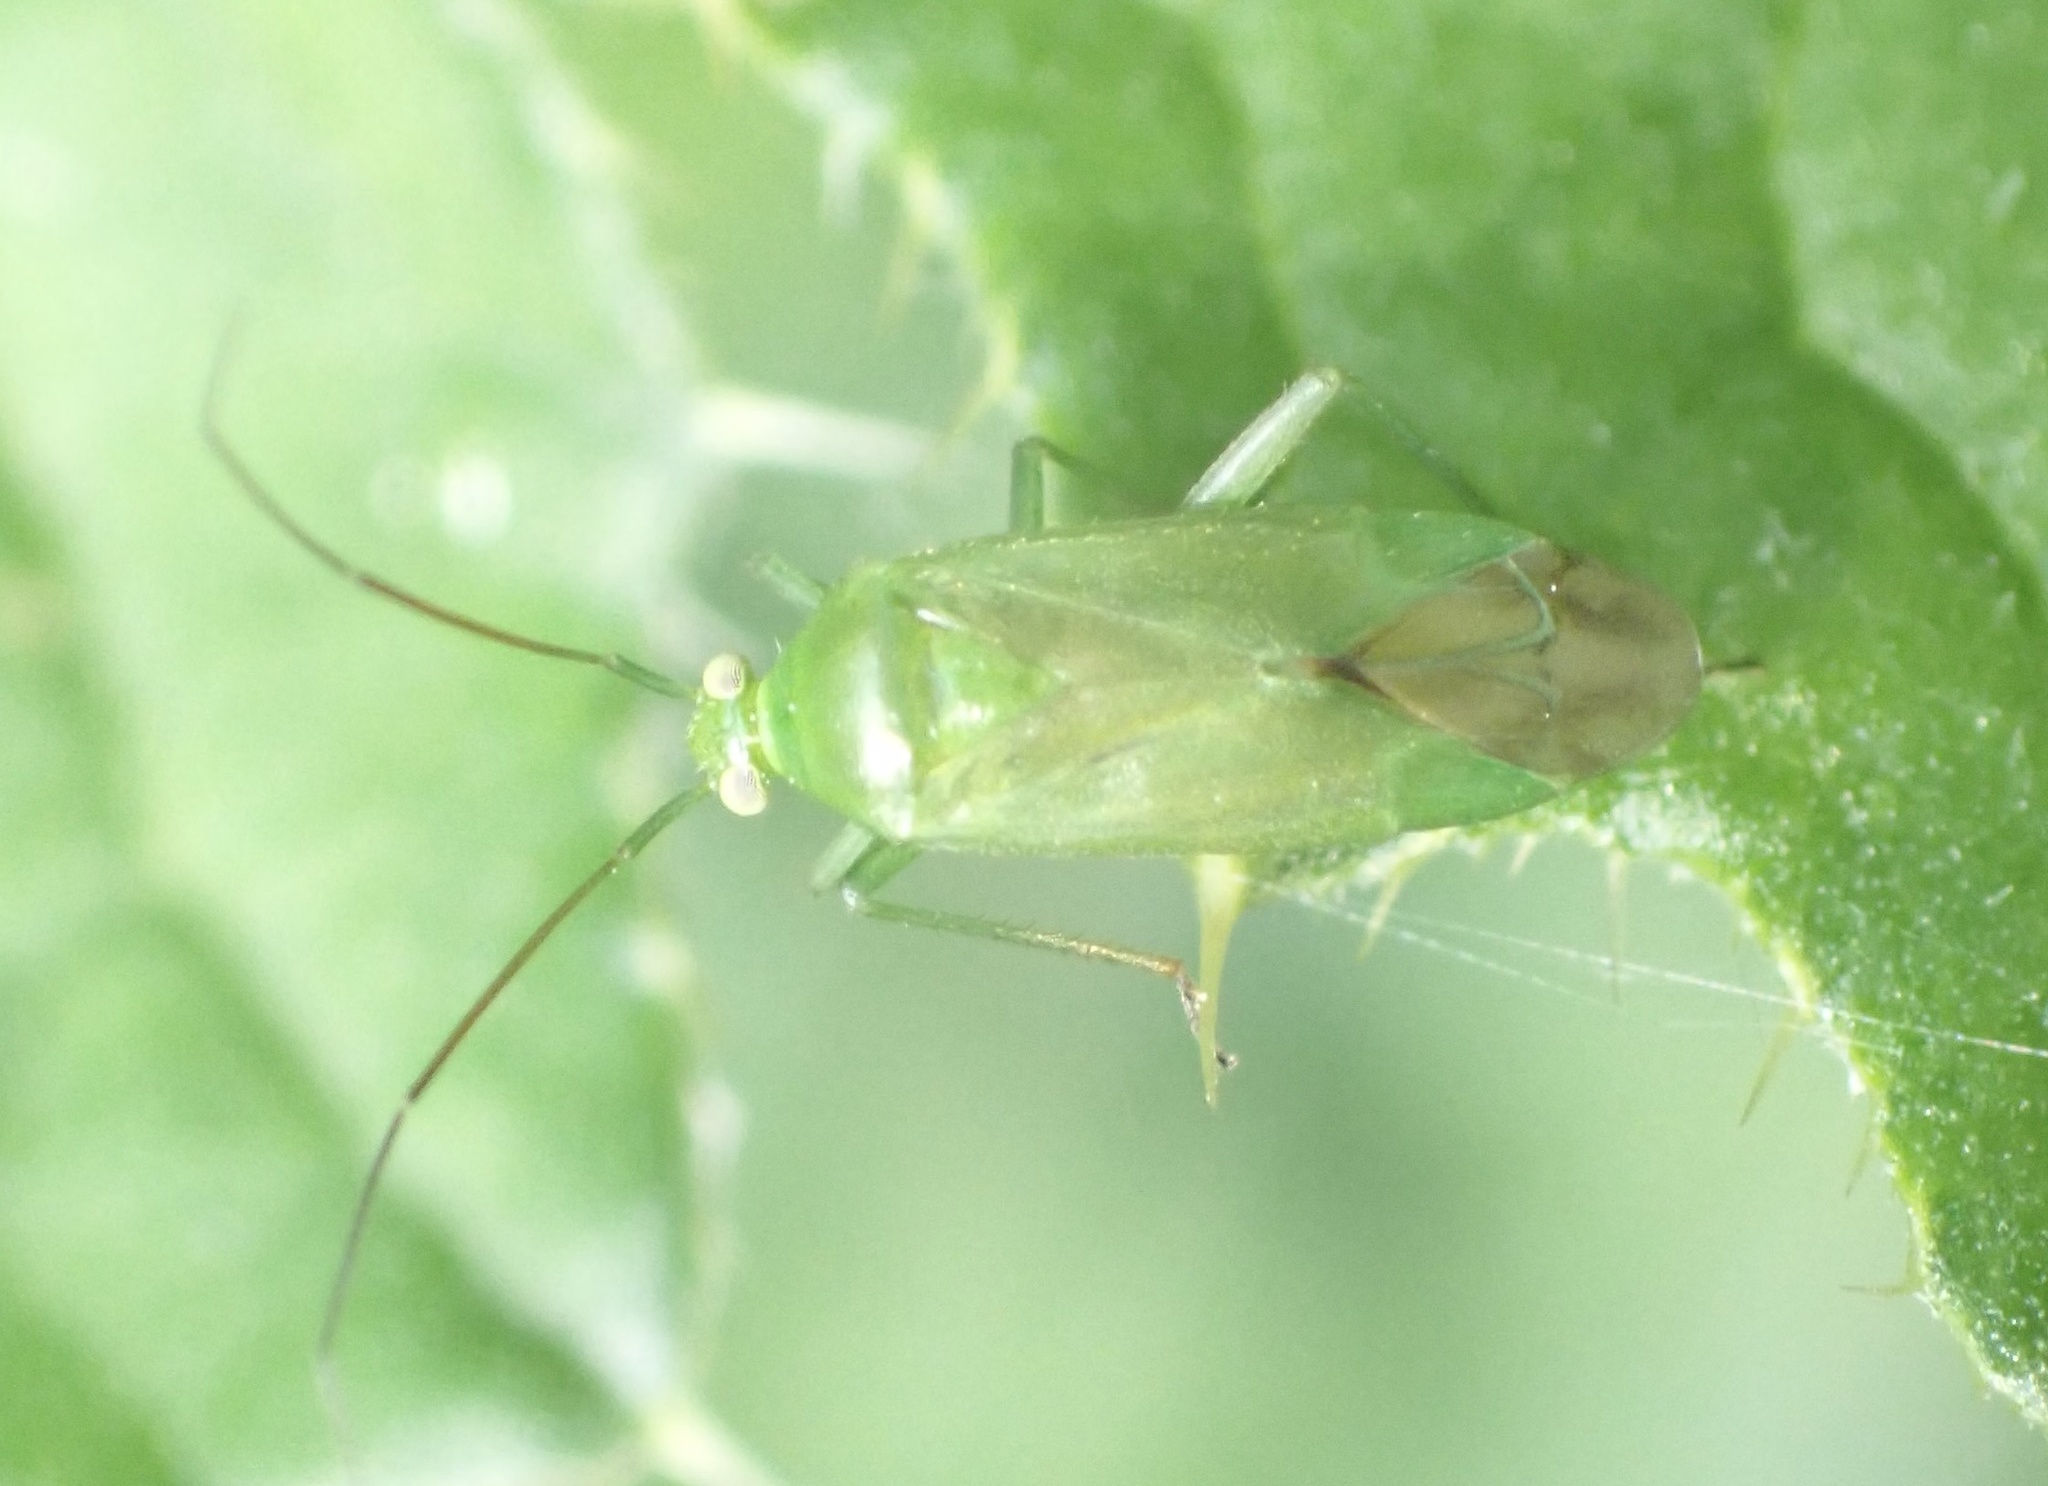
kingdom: Animalia
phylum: Arthropoda
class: Insecta
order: Hemiptera
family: Miridae
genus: Lygocoris
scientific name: Lygocoris pabulinus
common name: Common green capsid
